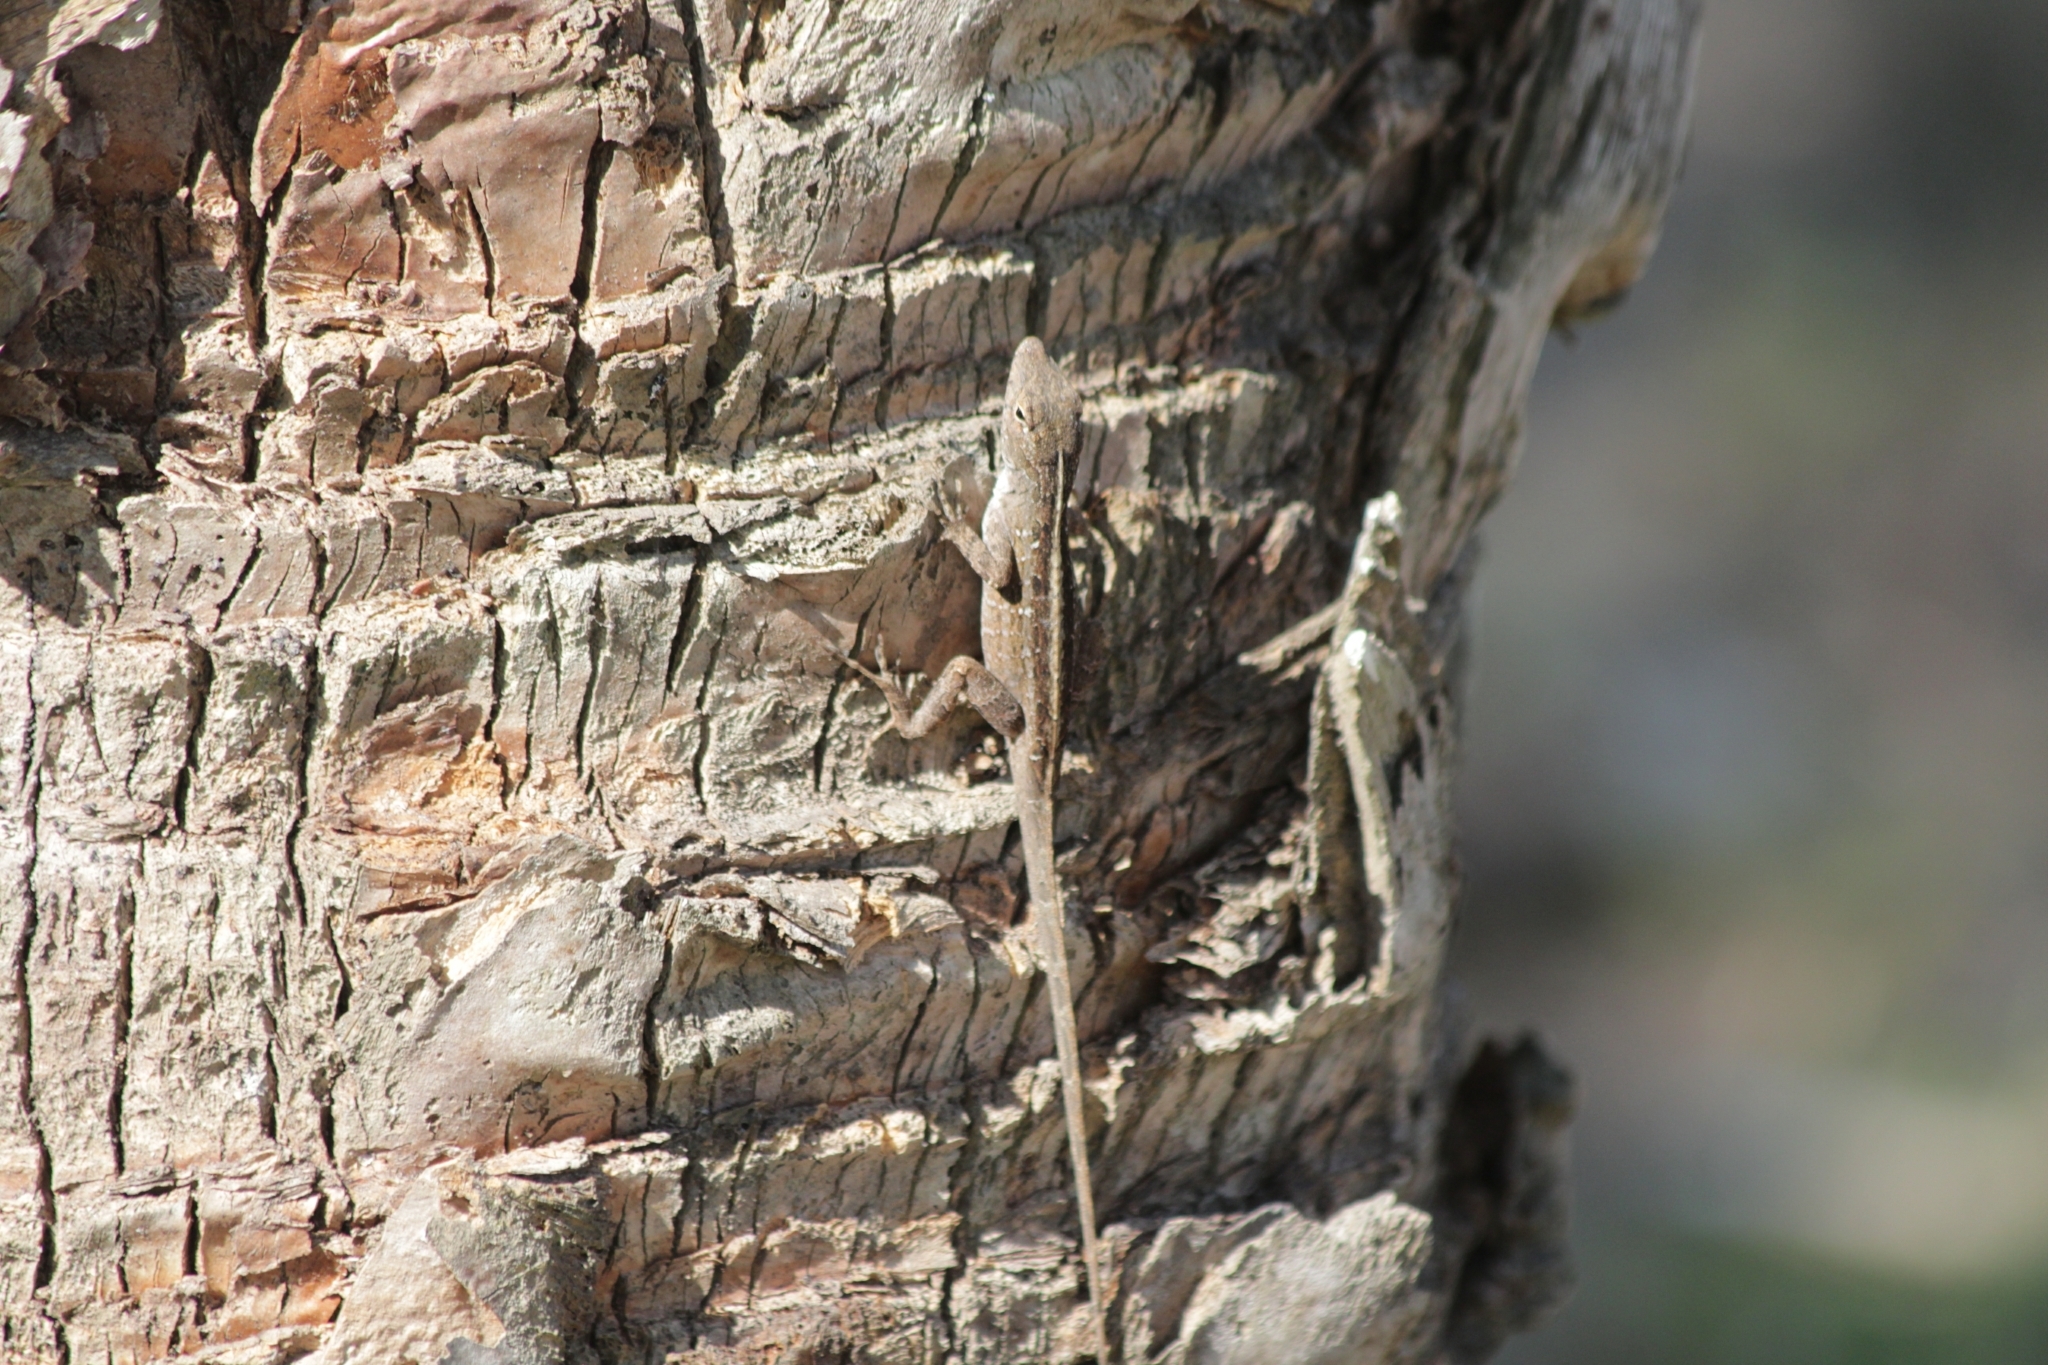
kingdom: Animalia
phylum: Chordata
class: Squamata
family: Dactyloidae
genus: Anolis
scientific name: Anolis sagrei
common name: Brown anole
